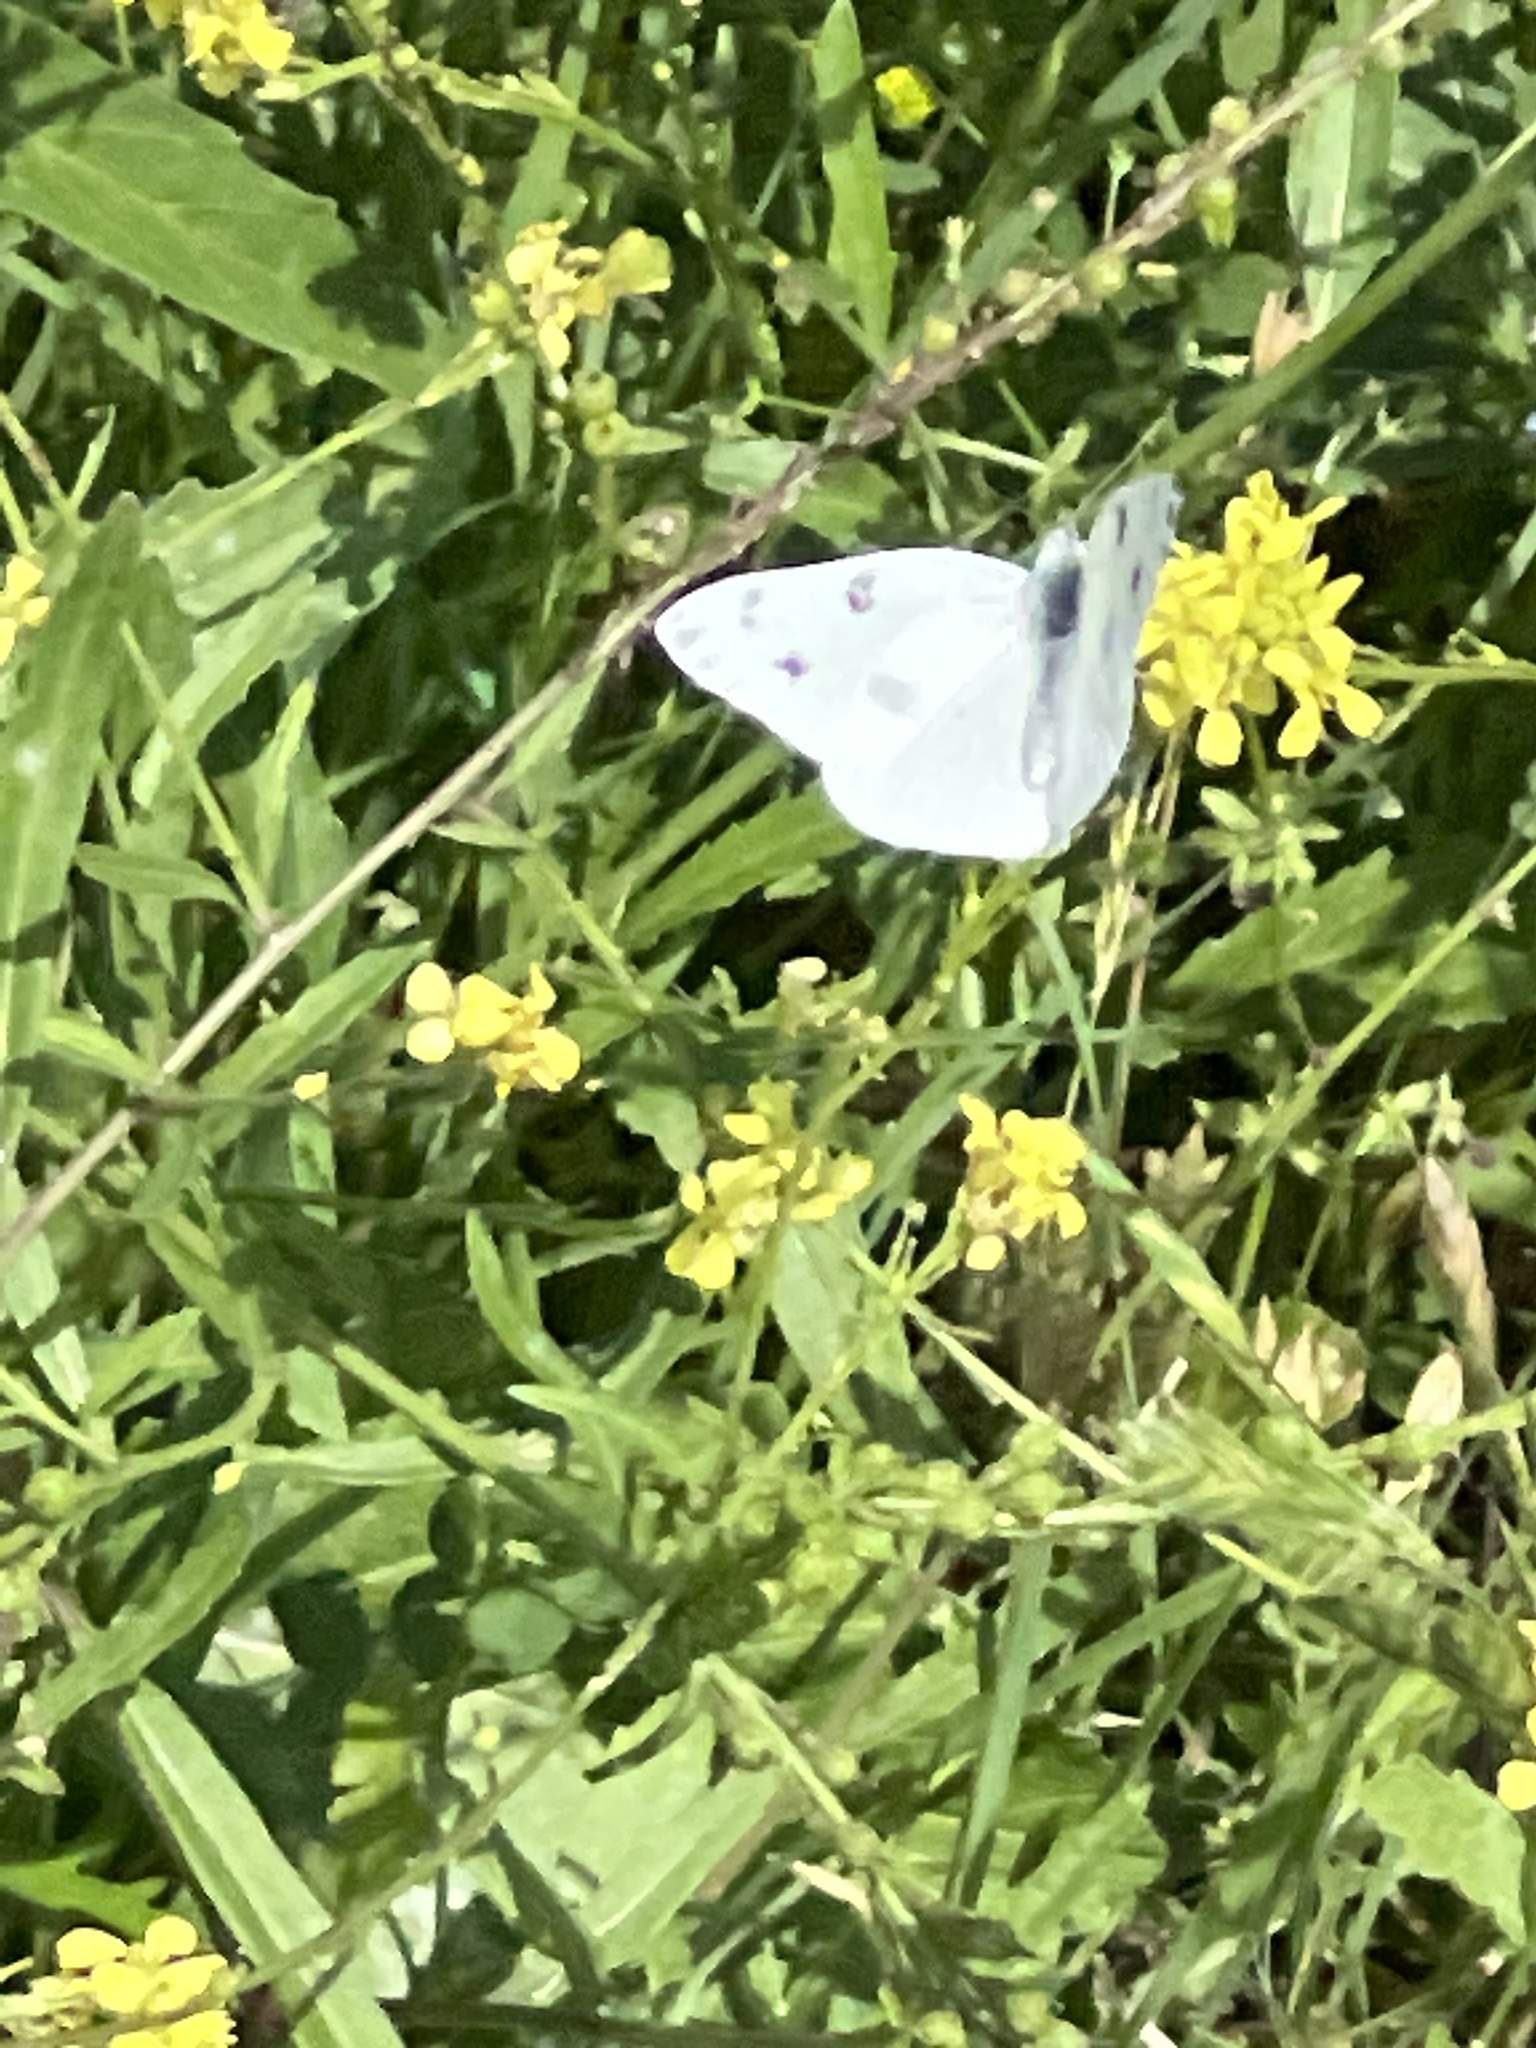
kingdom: Animalia
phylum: Arthropoda
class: Insecta
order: Lepidoptera
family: Pieridae
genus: Pontia
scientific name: Pontia protodice
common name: Checkered white
